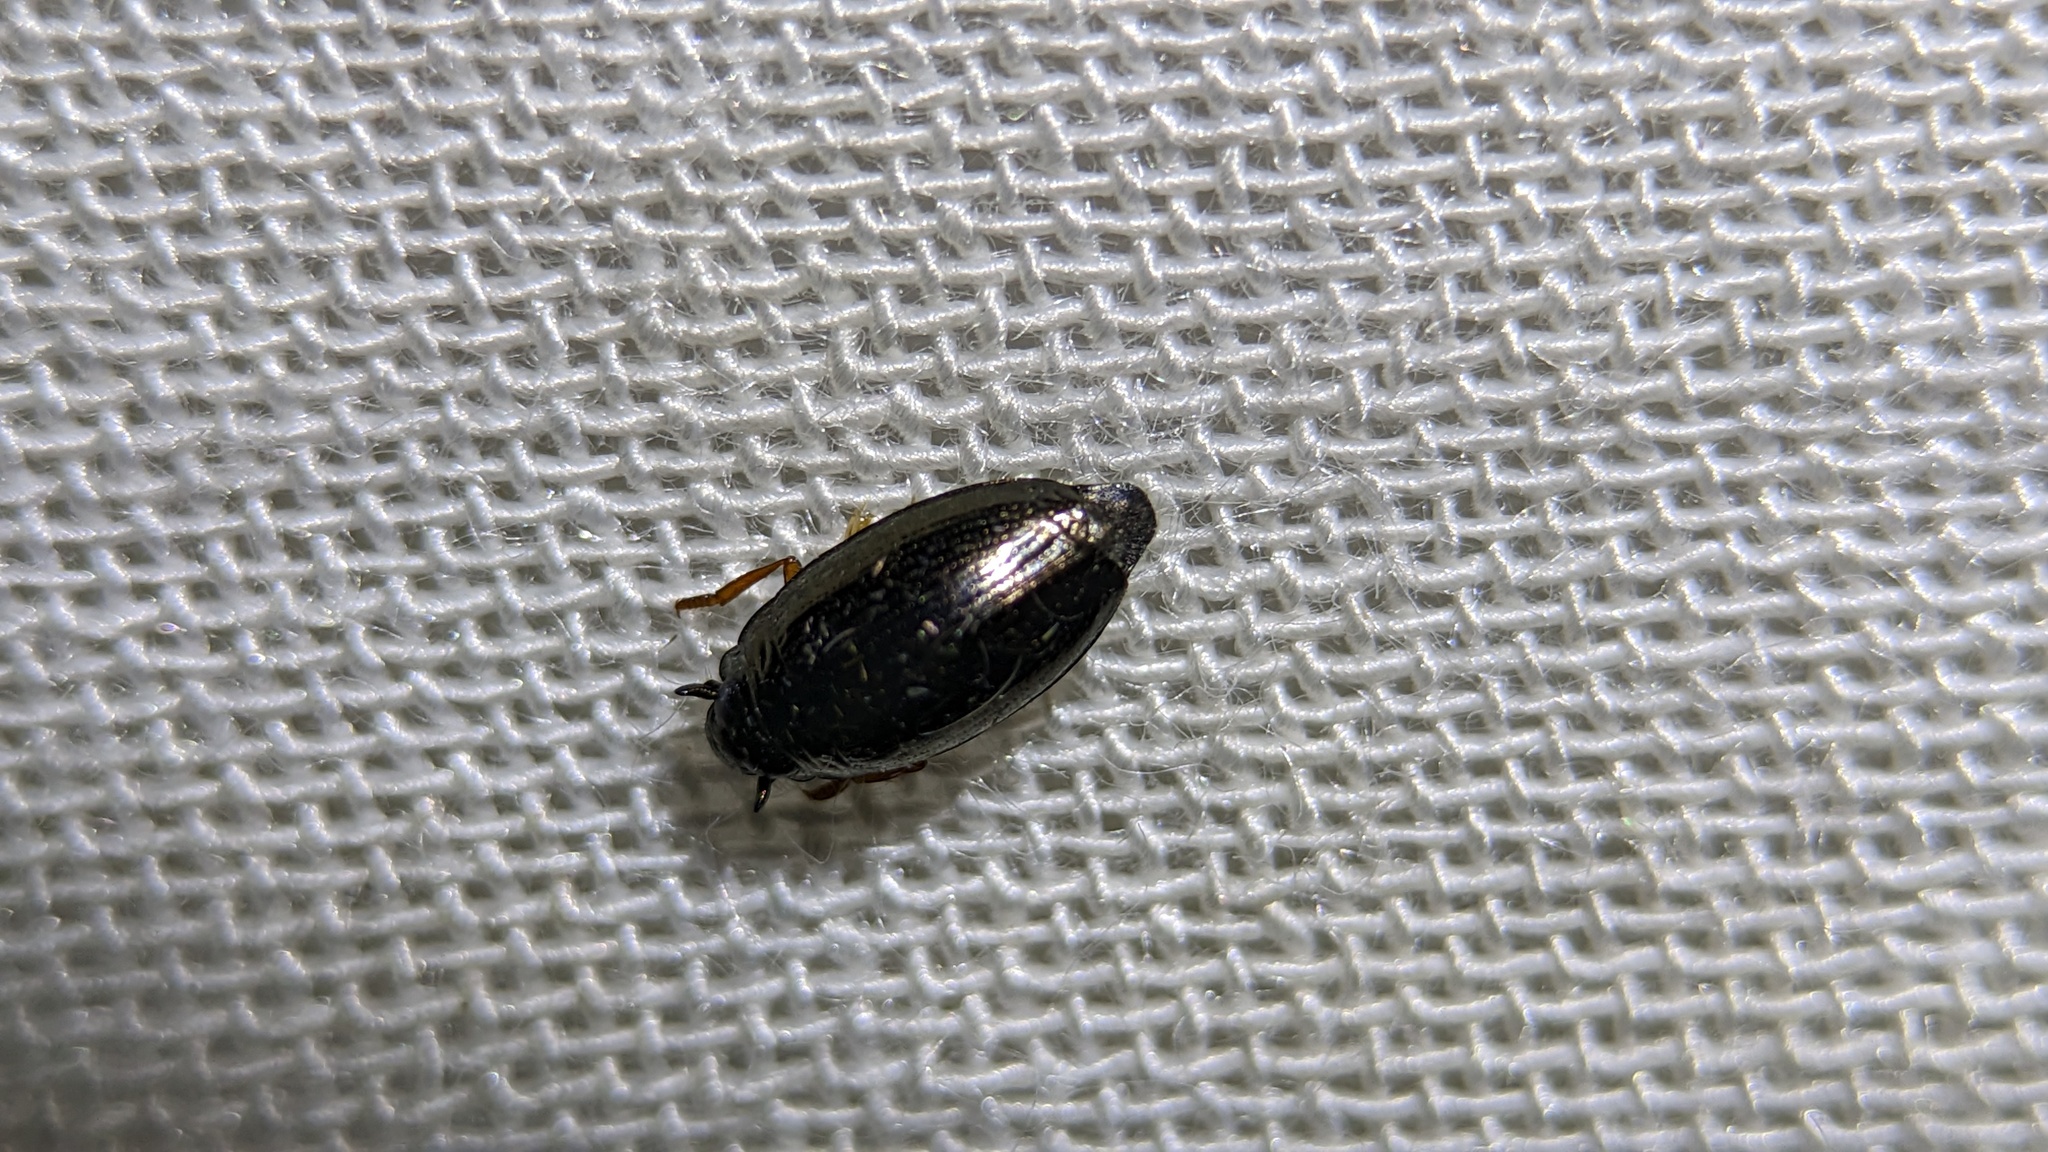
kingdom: Animalia
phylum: Arthropoda
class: Insecta
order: Coleoptera
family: Gyrinidae
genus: Gyrinus
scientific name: Gyrinus
